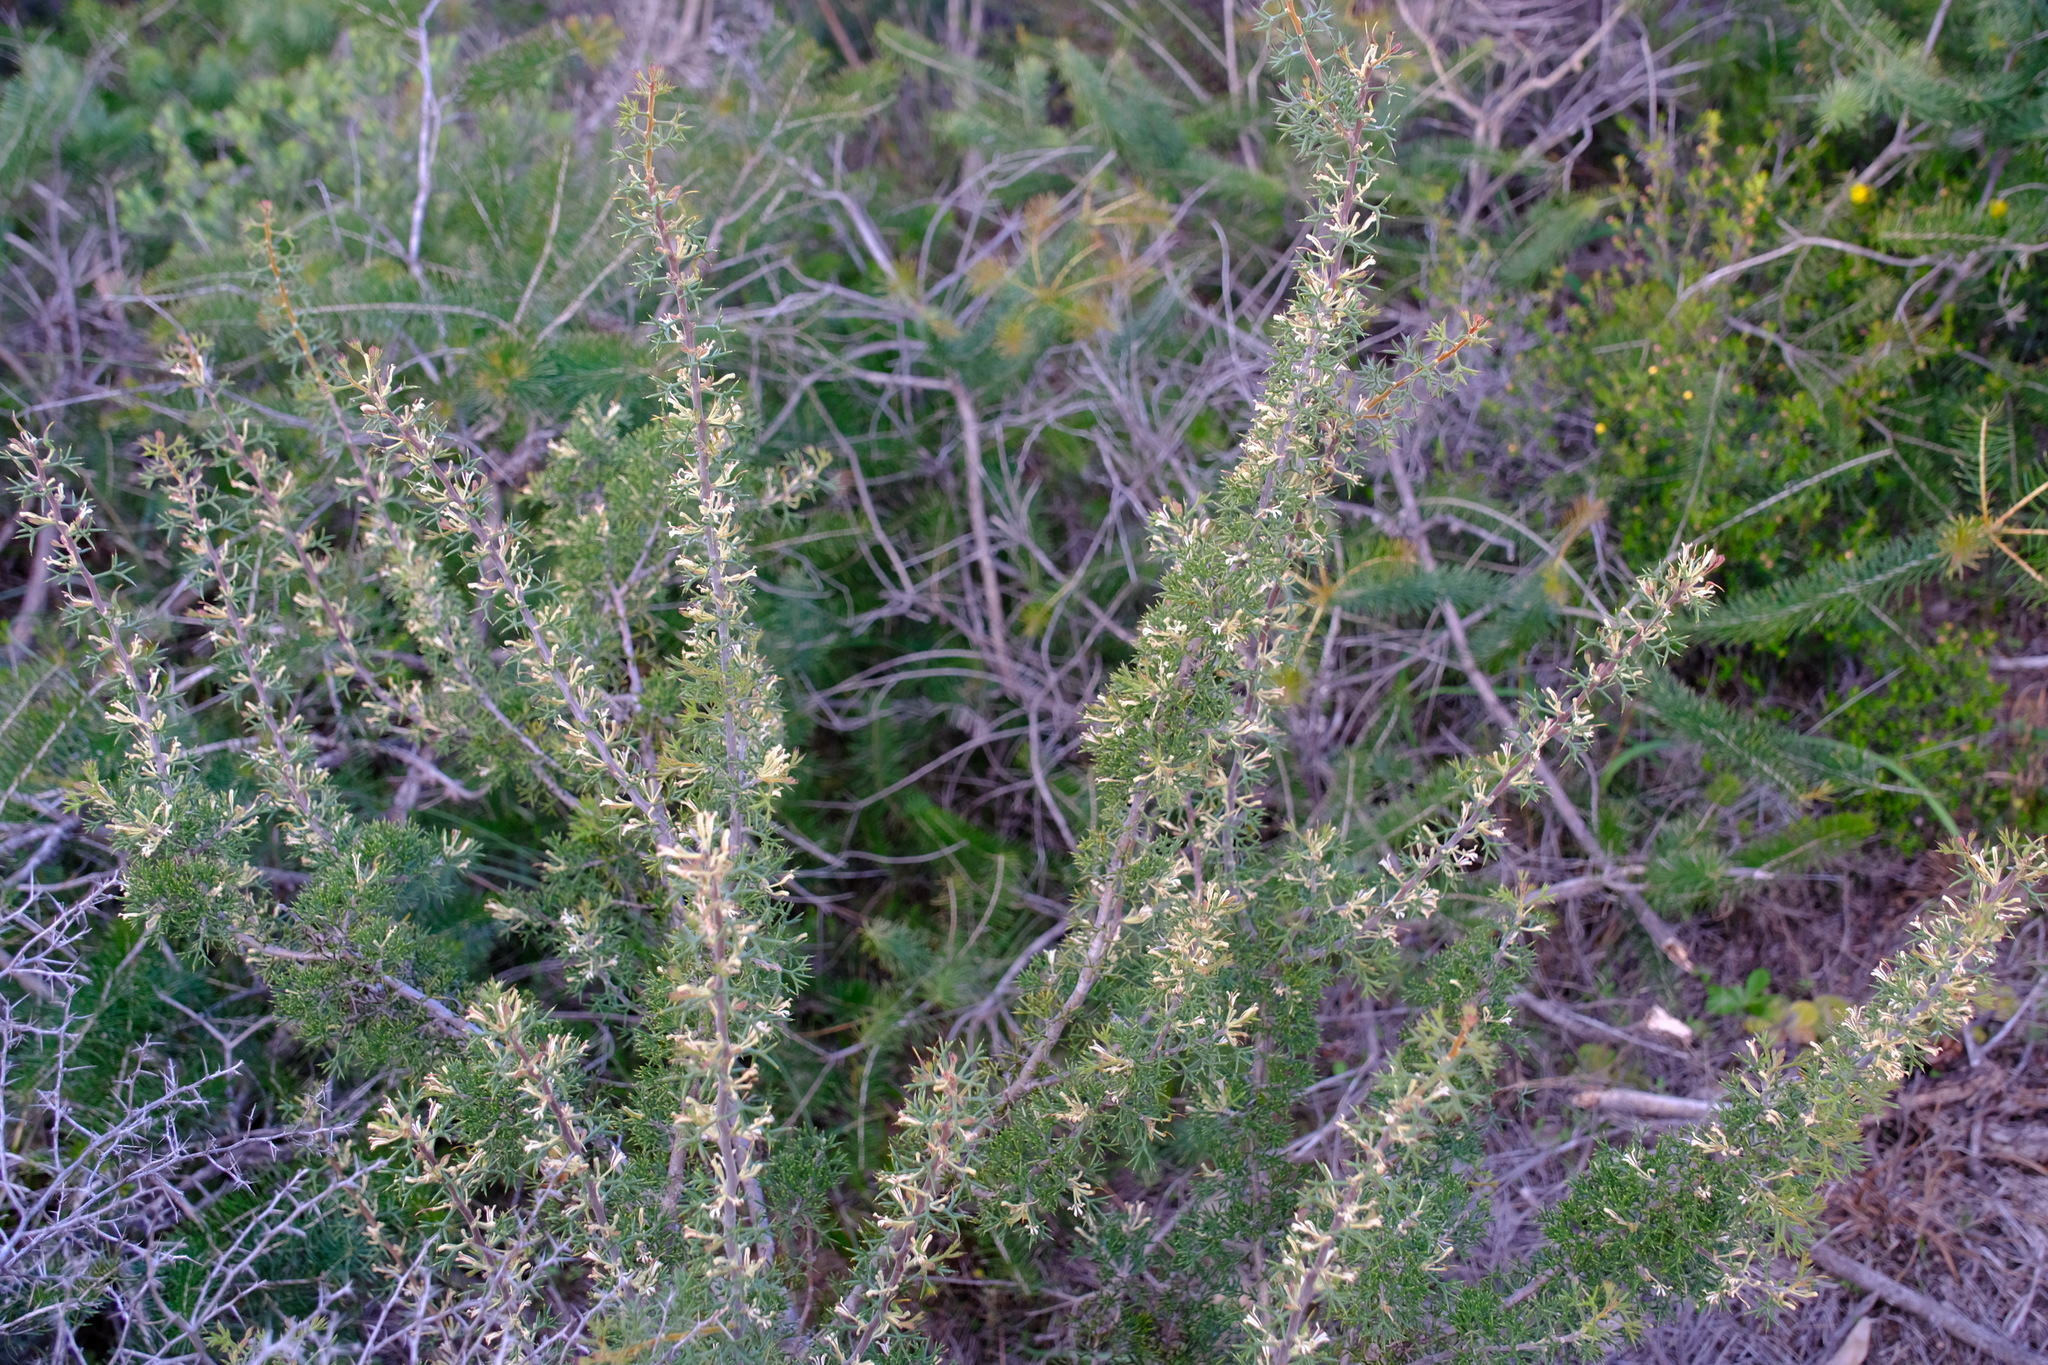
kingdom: Plantae
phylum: Tracheophyta
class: Magnoliopsida
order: Proteales
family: Proteaceae
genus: Hakea
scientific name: Hakea erinacea
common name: Hedgehog hakea
